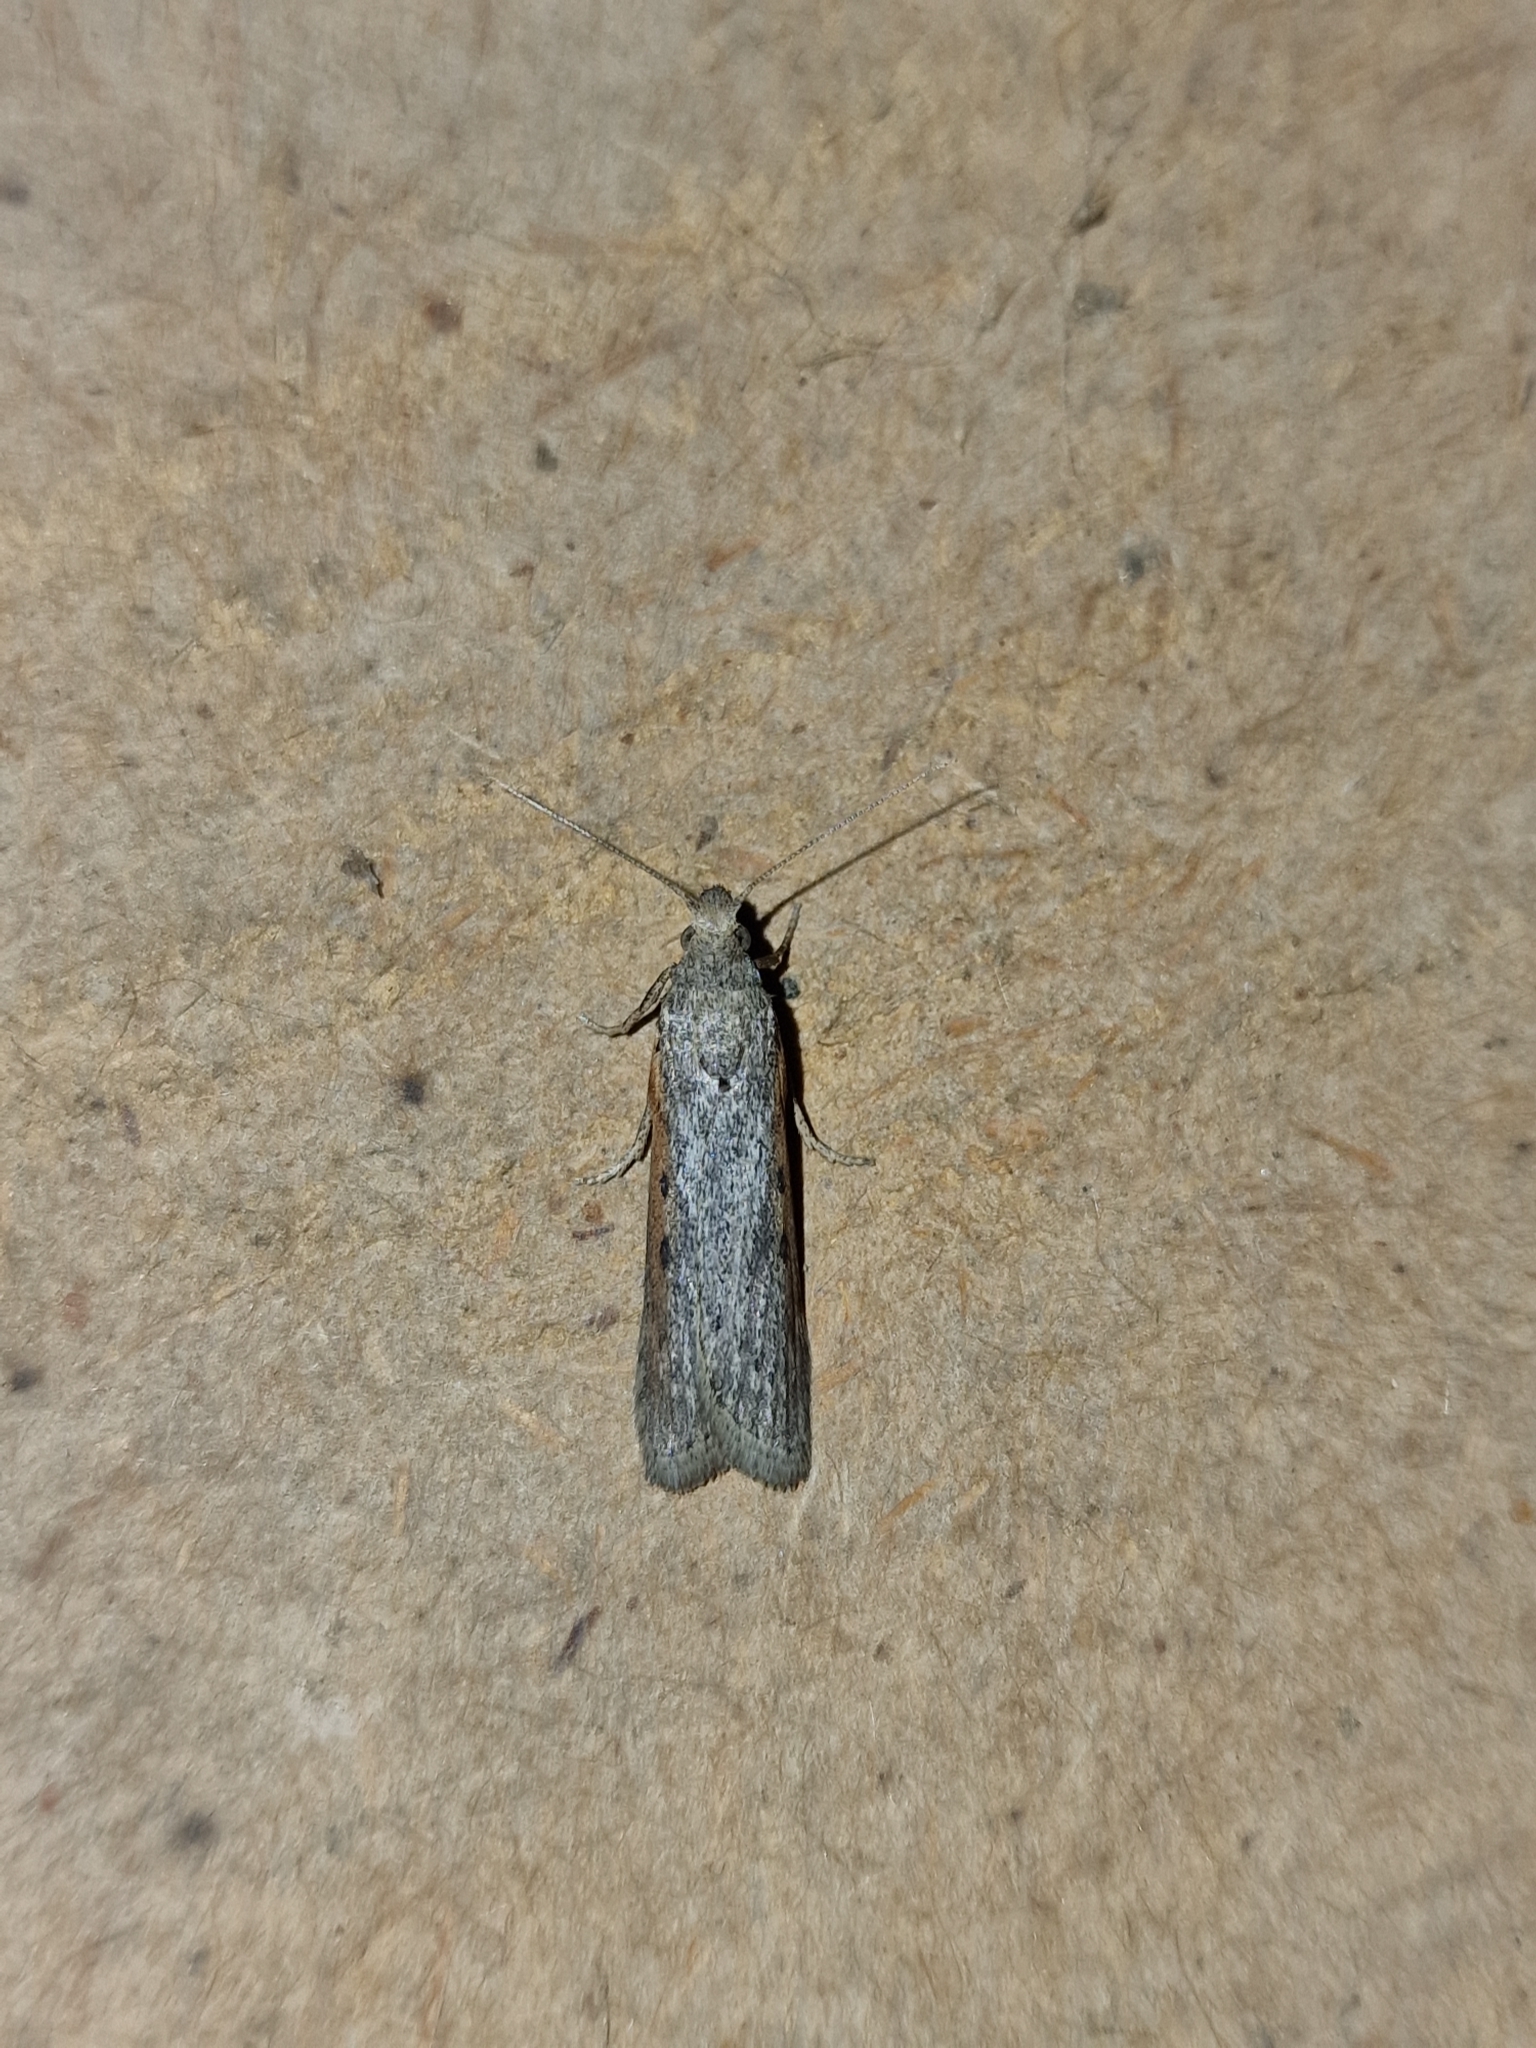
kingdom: Animalia
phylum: Arthropoda
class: Insecta
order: Lepidoptera
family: Pyralidae
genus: Aphomia
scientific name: Aphomia zelleri
